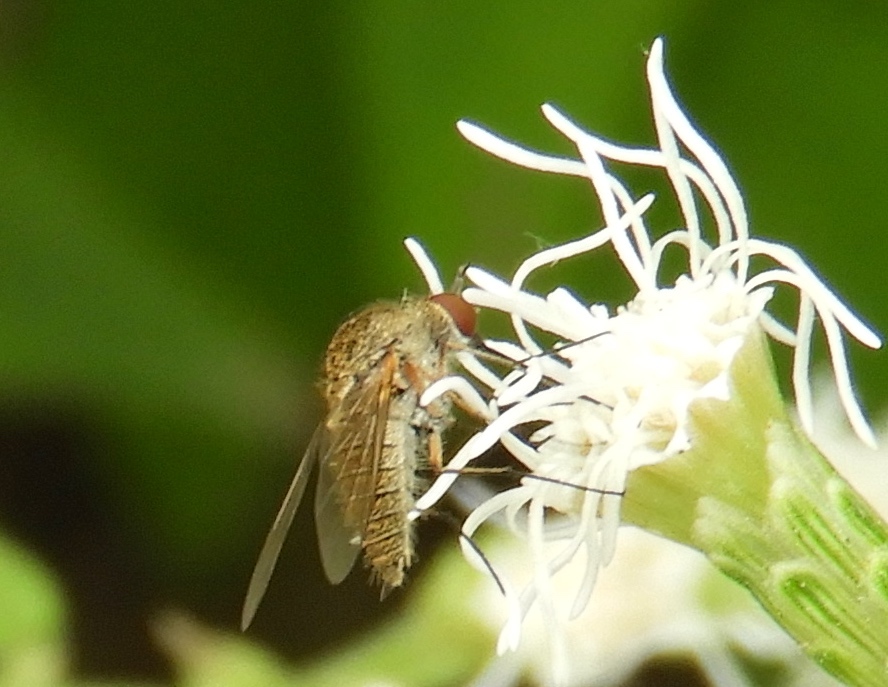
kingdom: Animalia
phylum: Arthropoda
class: Insecta
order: Diptera
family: Bombyliidae
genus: Geron
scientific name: Geron
